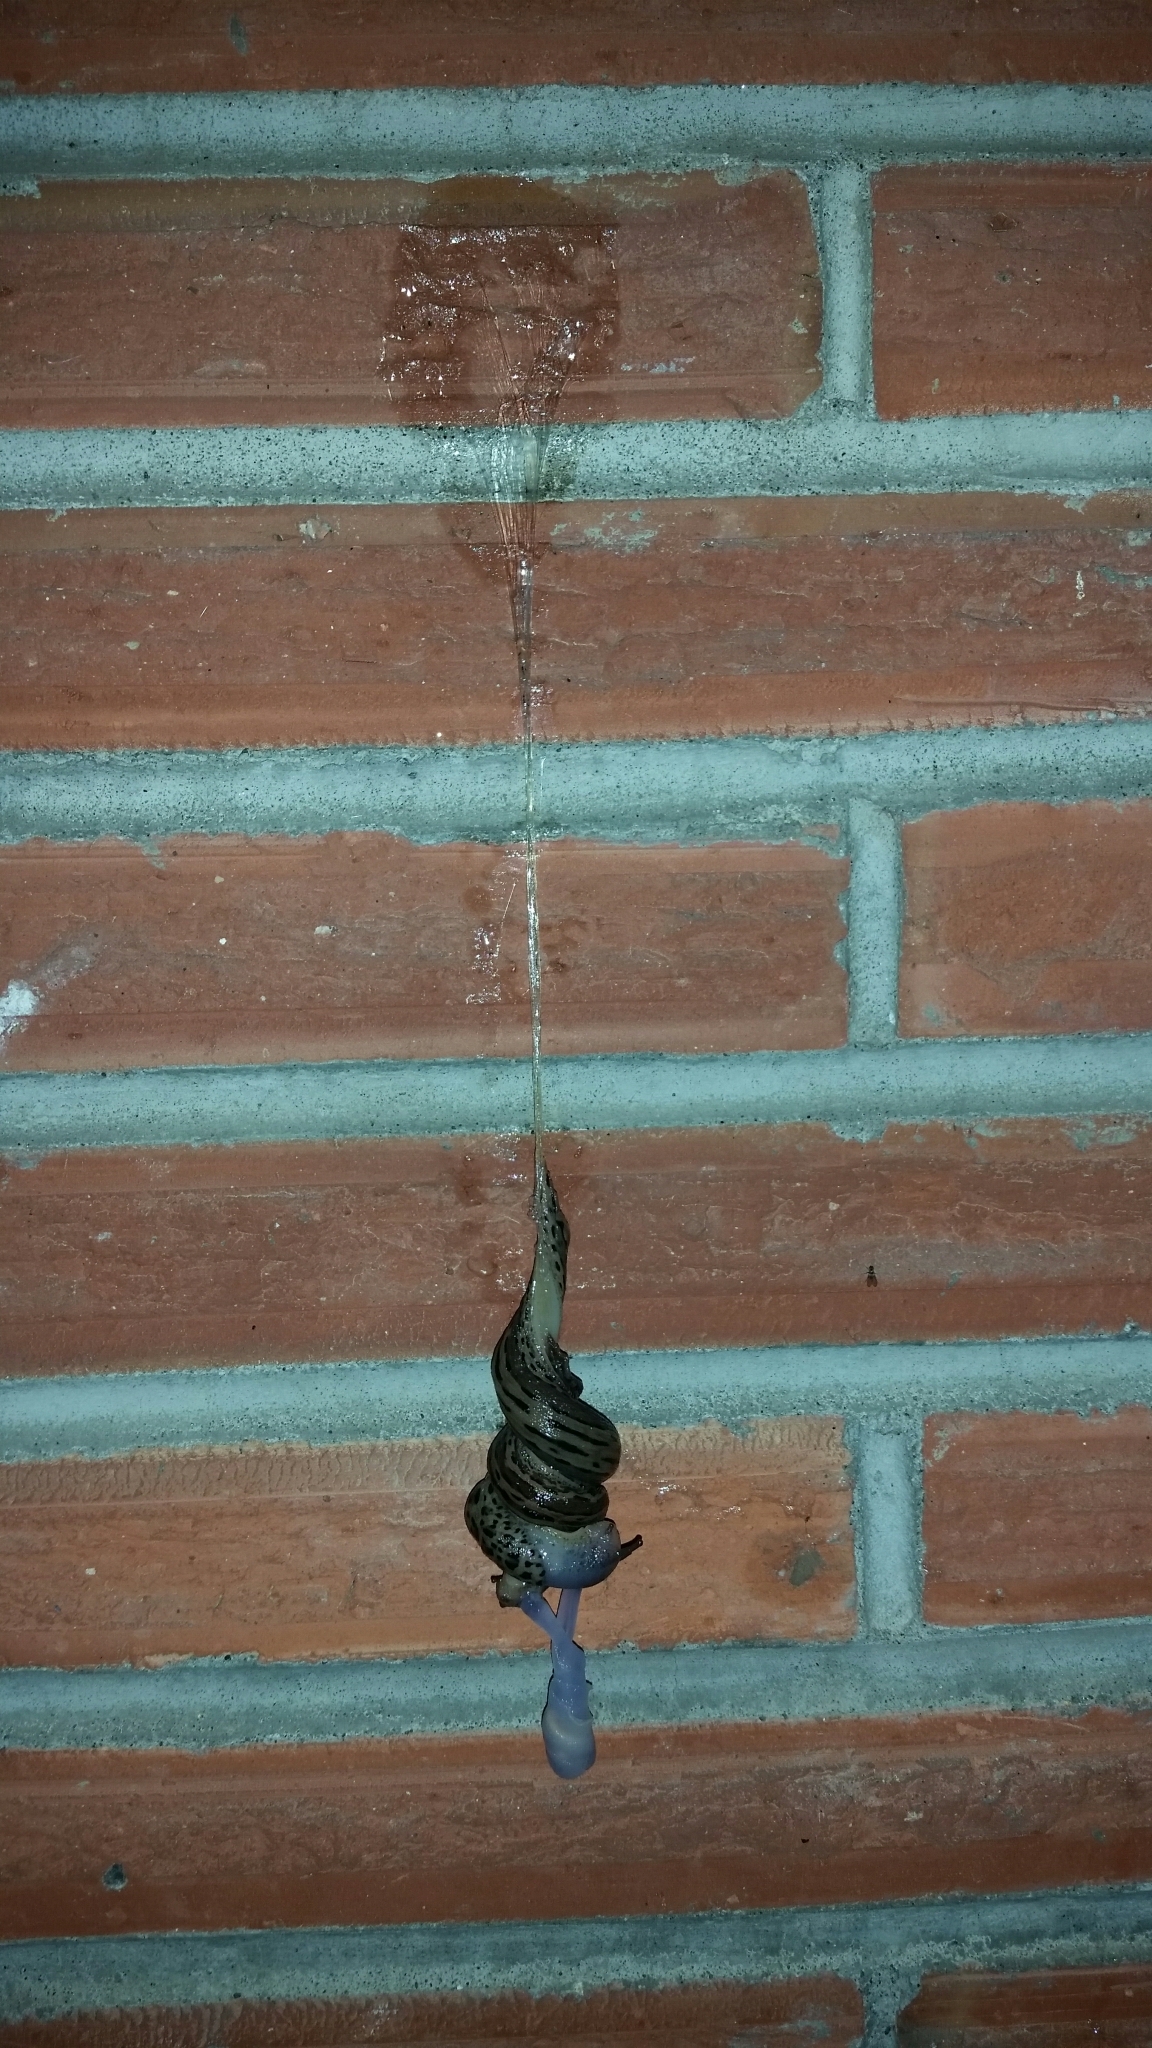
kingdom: Animalia
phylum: Mollusca
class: Gastropoda
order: Stylommatophora
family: Limacidae
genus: Limax
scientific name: Limax maximus
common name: Great grey slug
